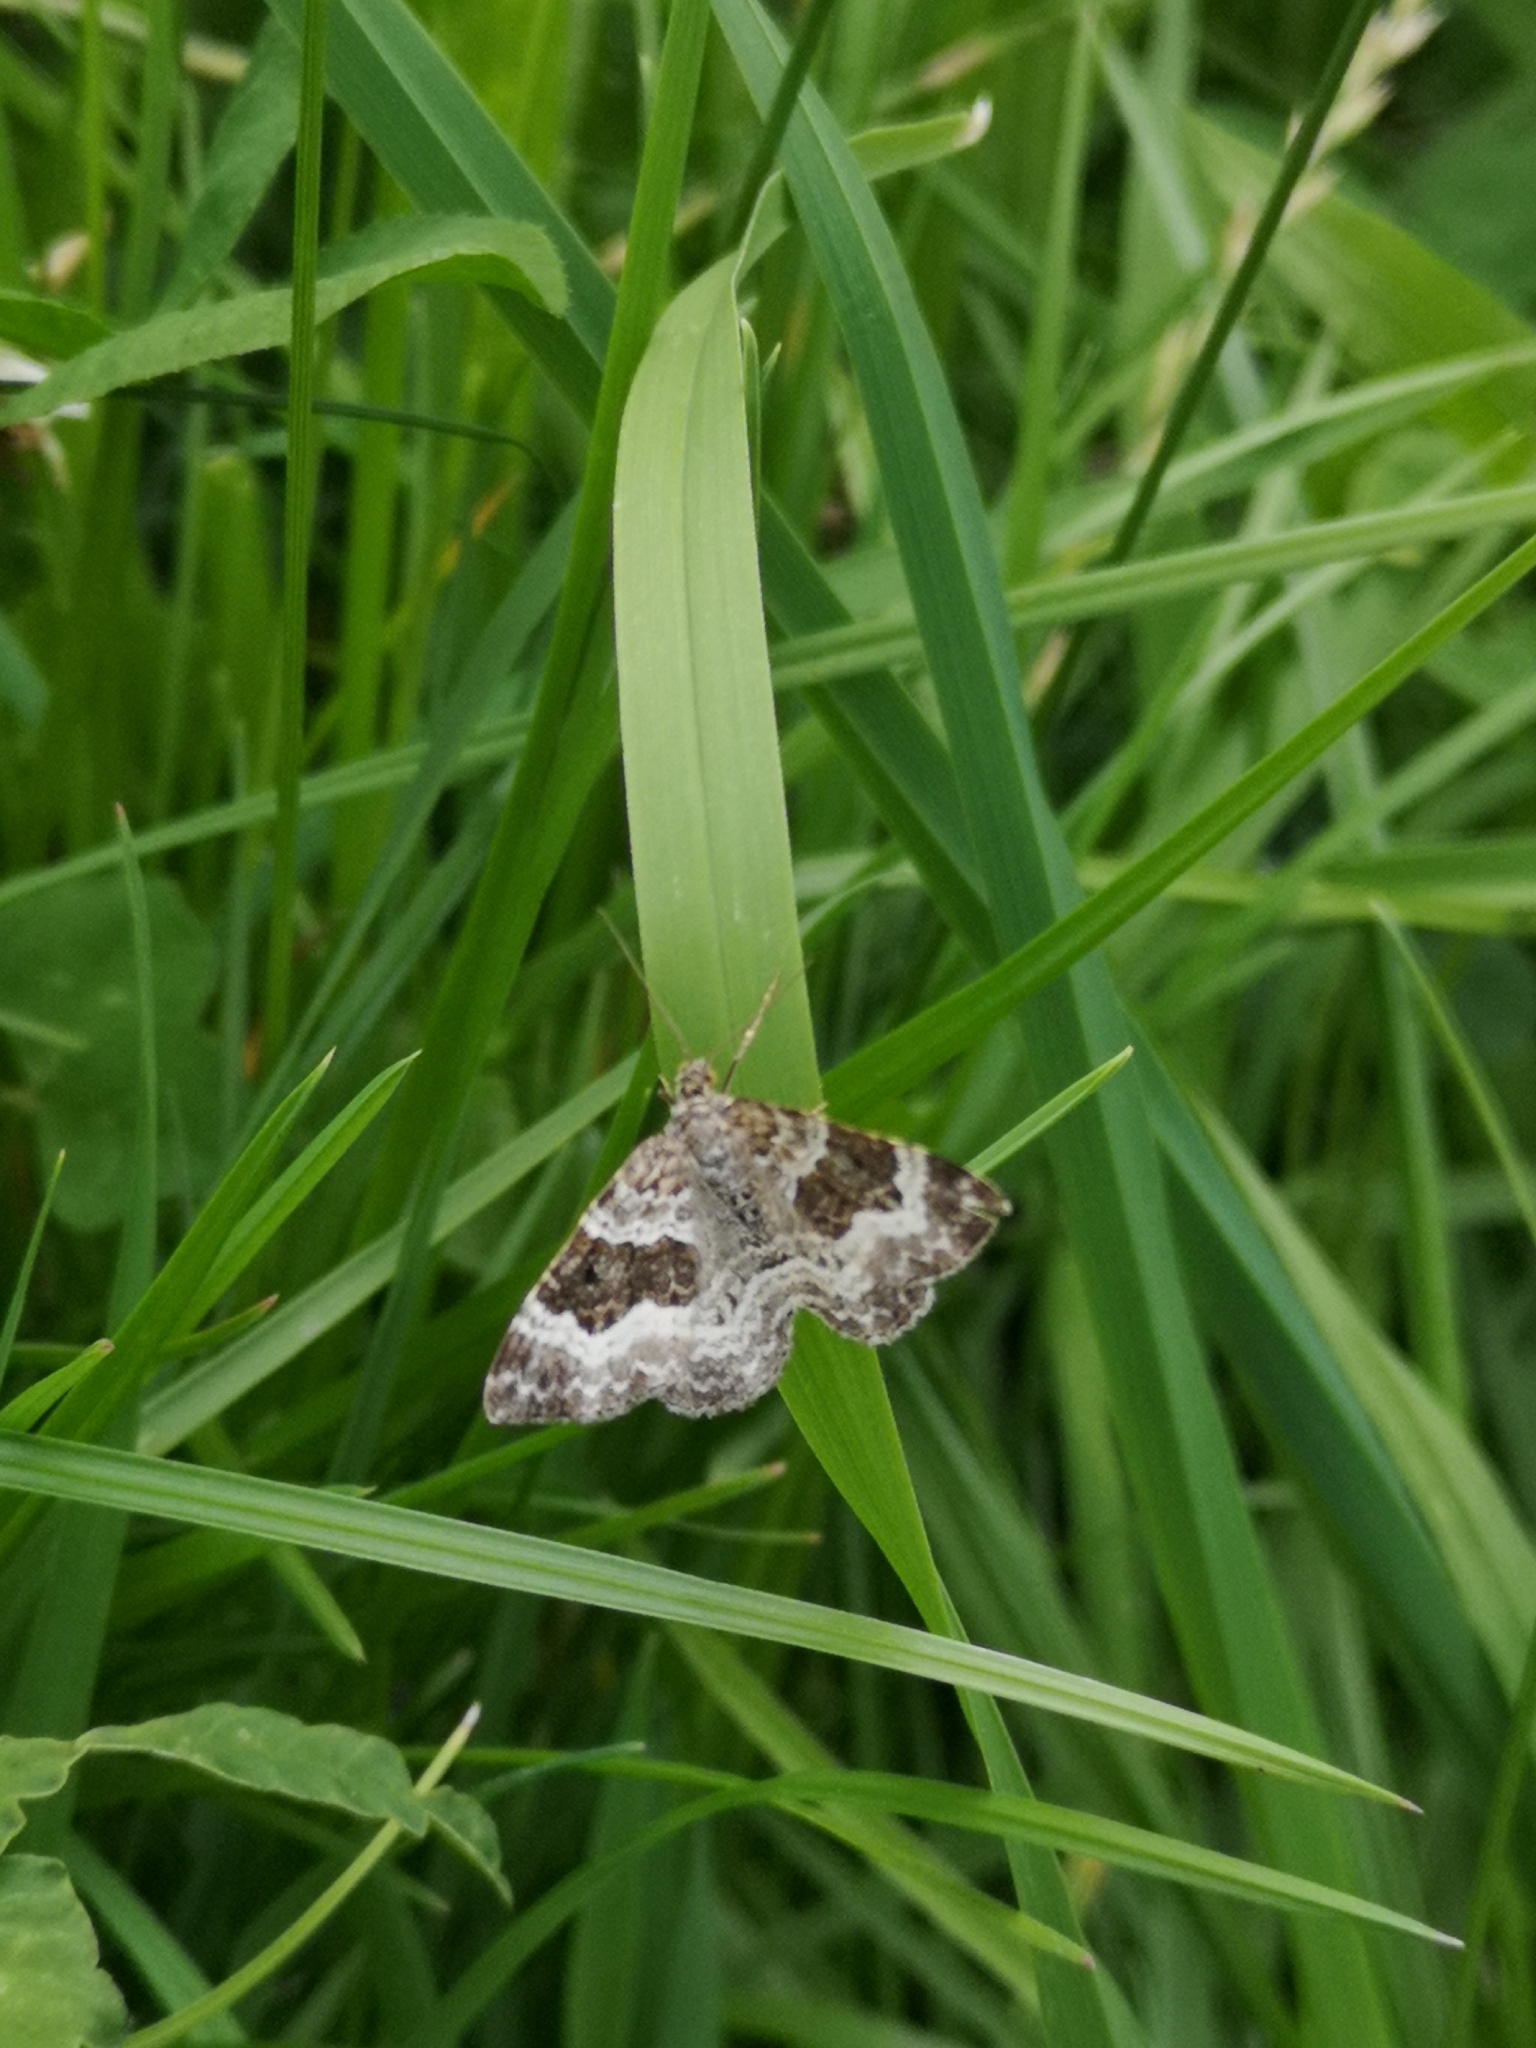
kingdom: Animalia
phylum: Arthropoda
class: Insecta
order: Lepidoptera
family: Geometridae
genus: Epirrhoe
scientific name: Epirrhoe alternata
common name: Common carpet
